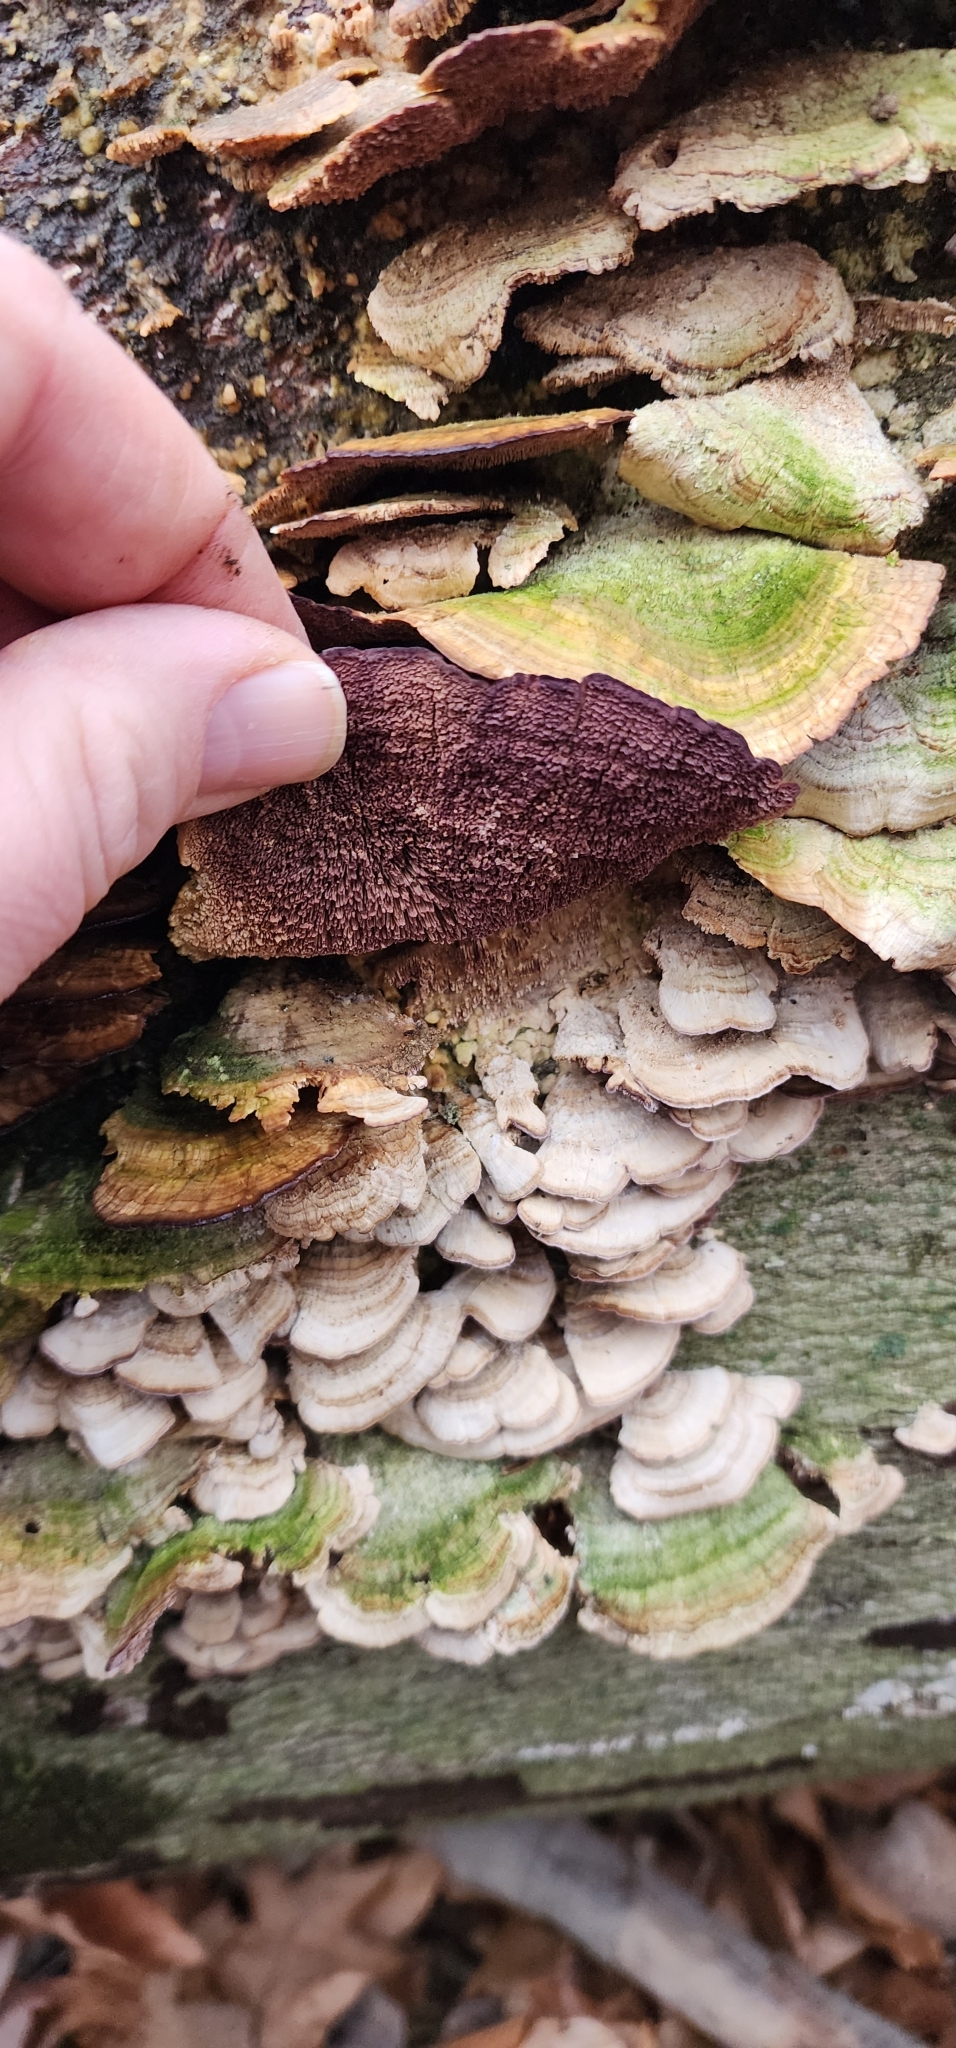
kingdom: Fungi
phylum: Basidiomycota
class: Agaricomycetes
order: Hymenochaetales
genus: Trichaptum
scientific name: Trichaptum biforme
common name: Violet-toothed polypore
